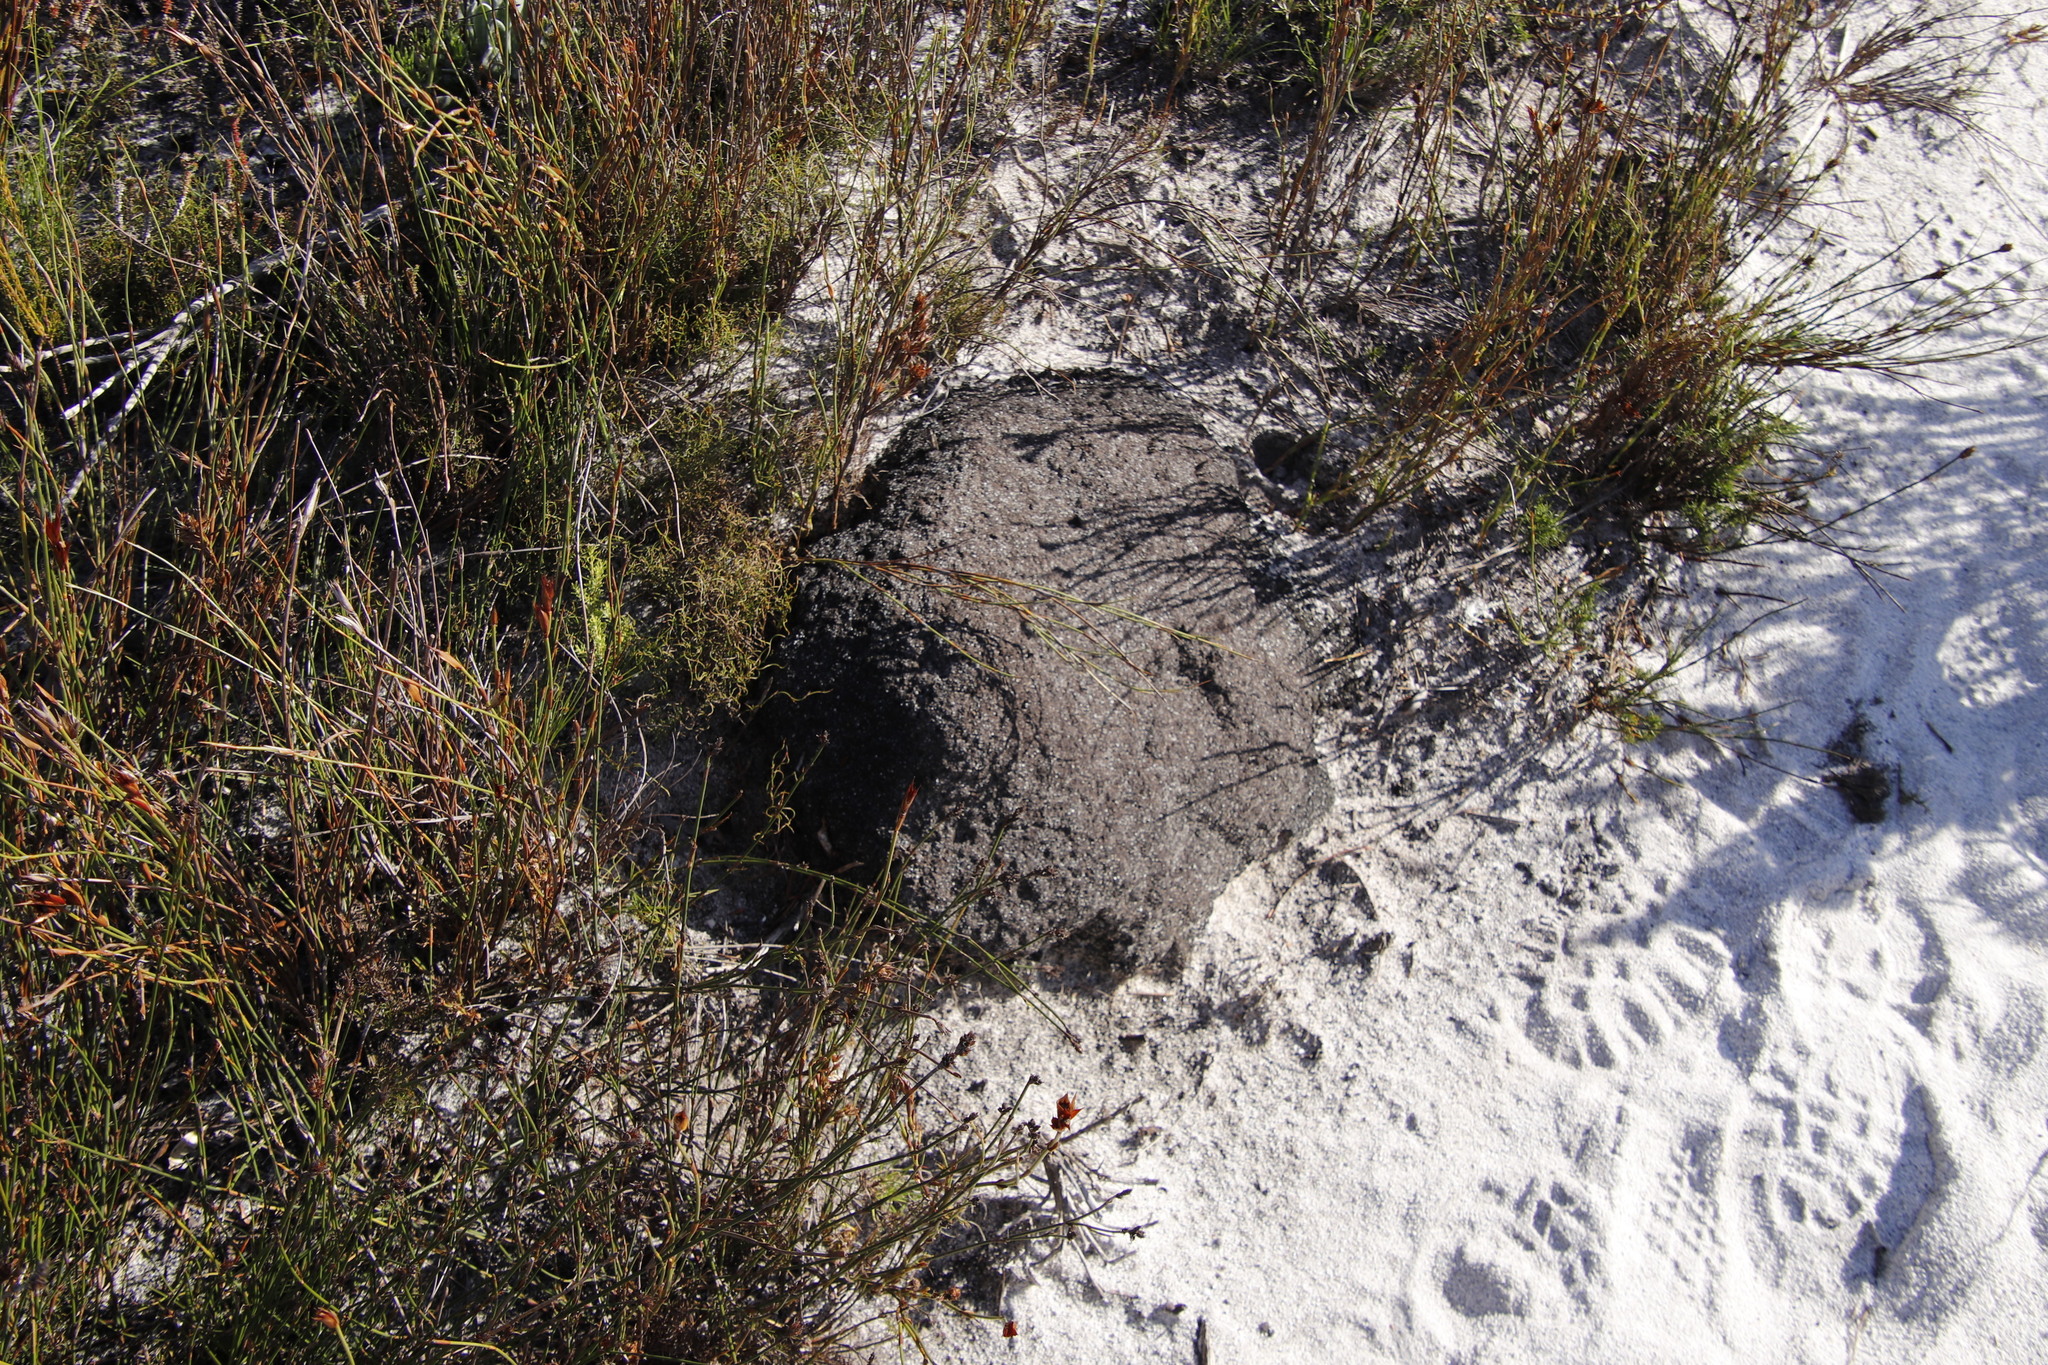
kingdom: Animalia
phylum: Arthropoda
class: Insecta
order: Blattodea
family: Termitidae
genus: Amitermes
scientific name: Amitermes hastatus
